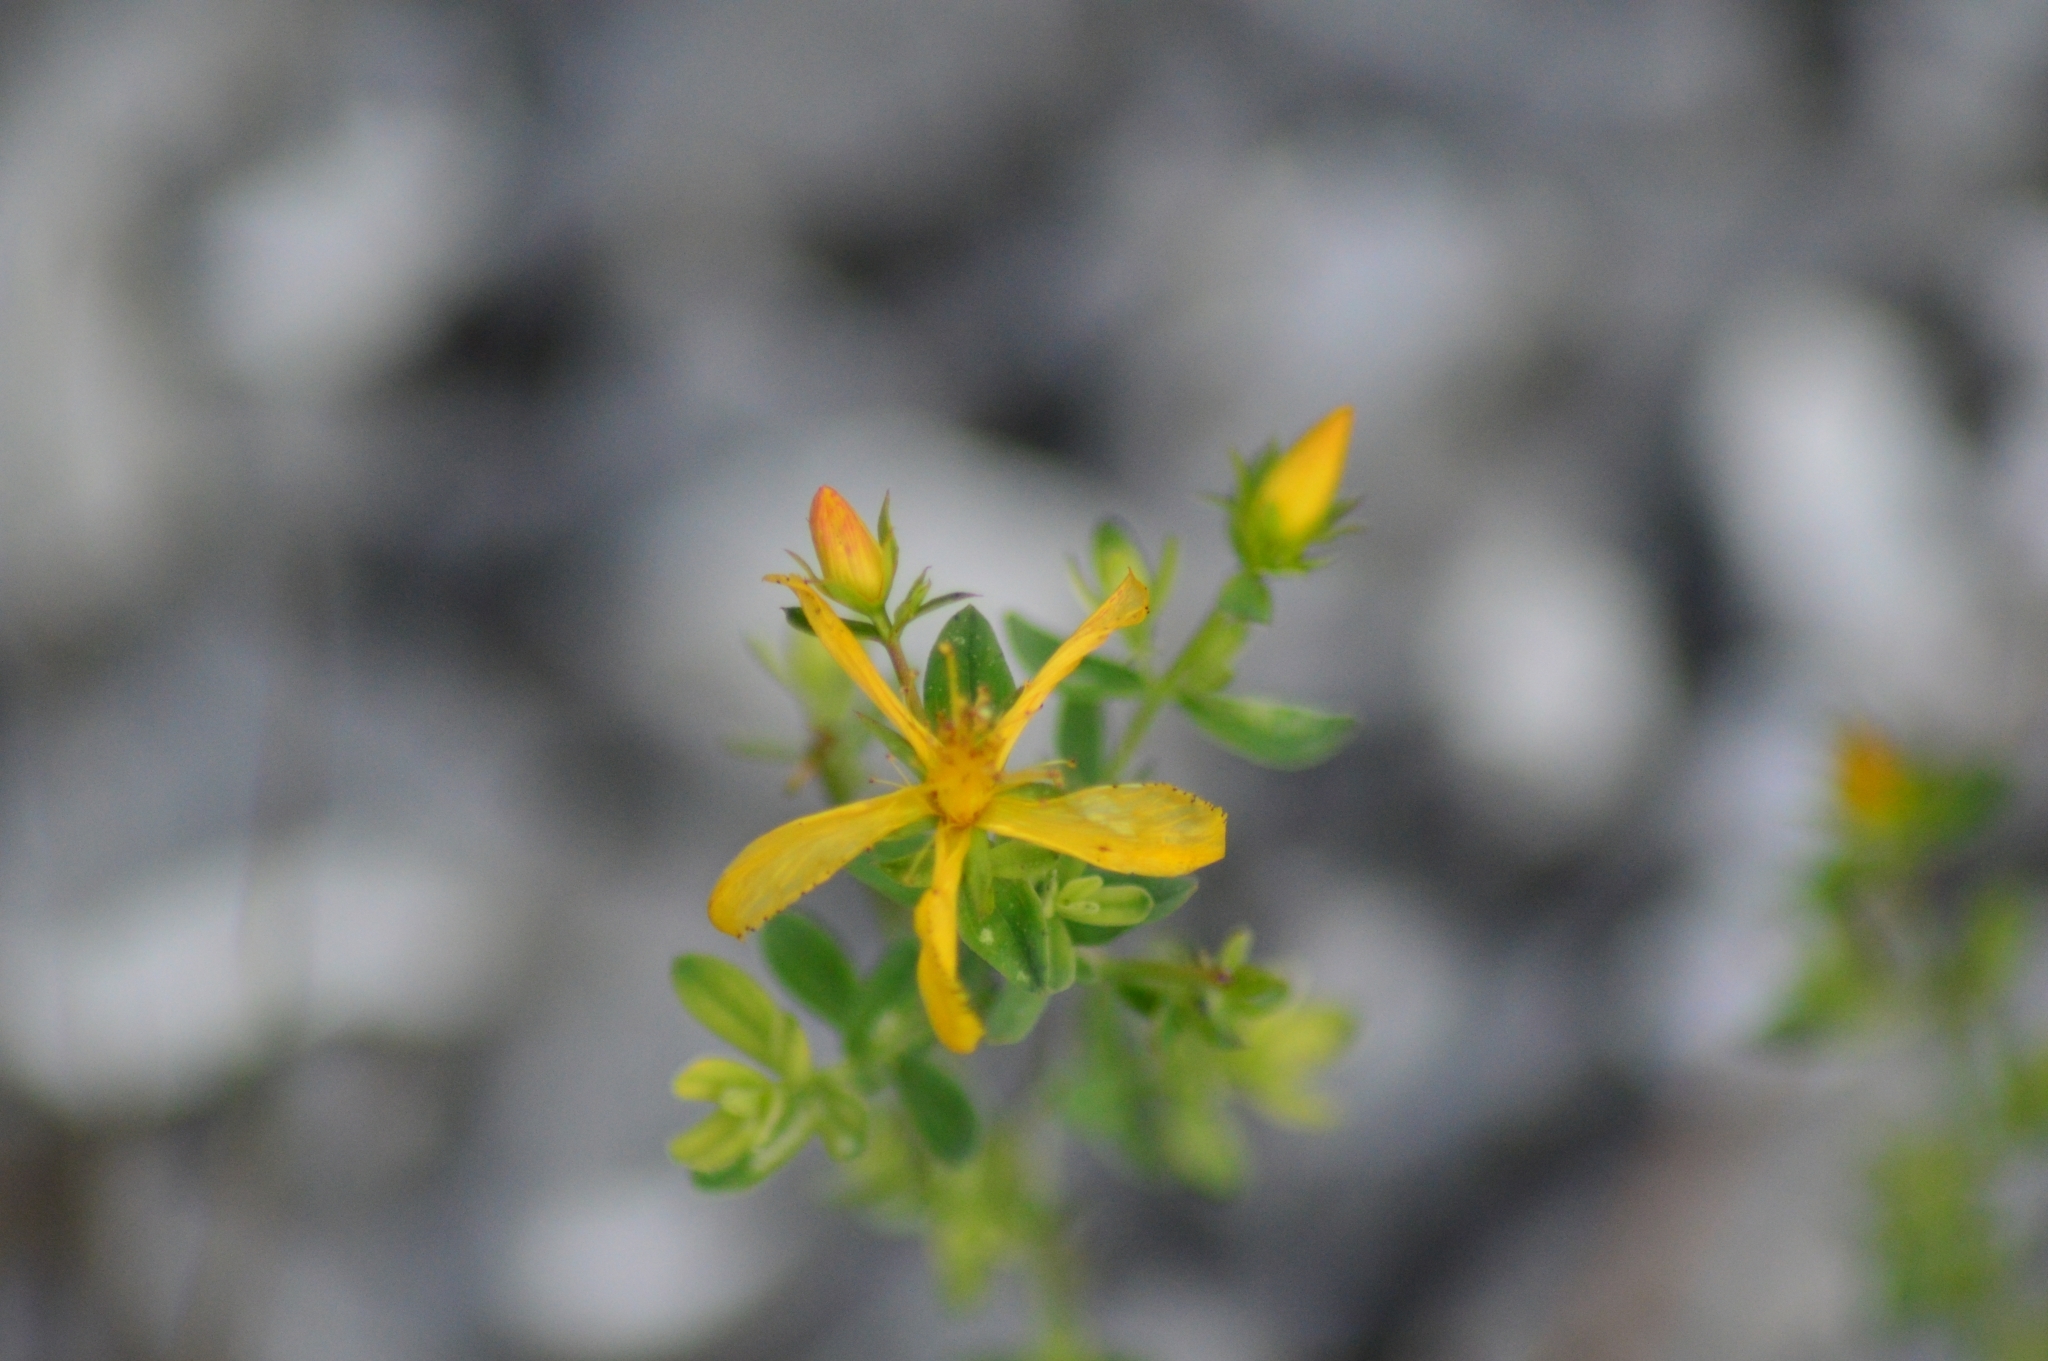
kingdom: Plantae
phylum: Tracheophyta
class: Magnoliopsida
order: Malpighiales
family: Hypericaceae
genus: Hypericum
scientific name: Hypericum perforatum
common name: Common st. johnswort
